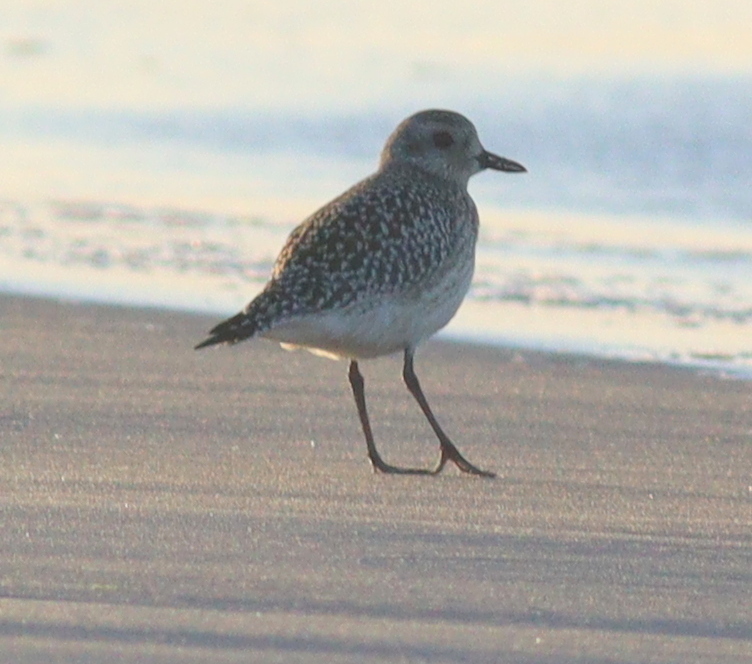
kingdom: Animalia
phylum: Chordata
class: Aves
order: Charadriiformes
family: Charadriidae
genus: Pluvialis
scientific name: Pluvialis squatarola
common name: Grey plover
